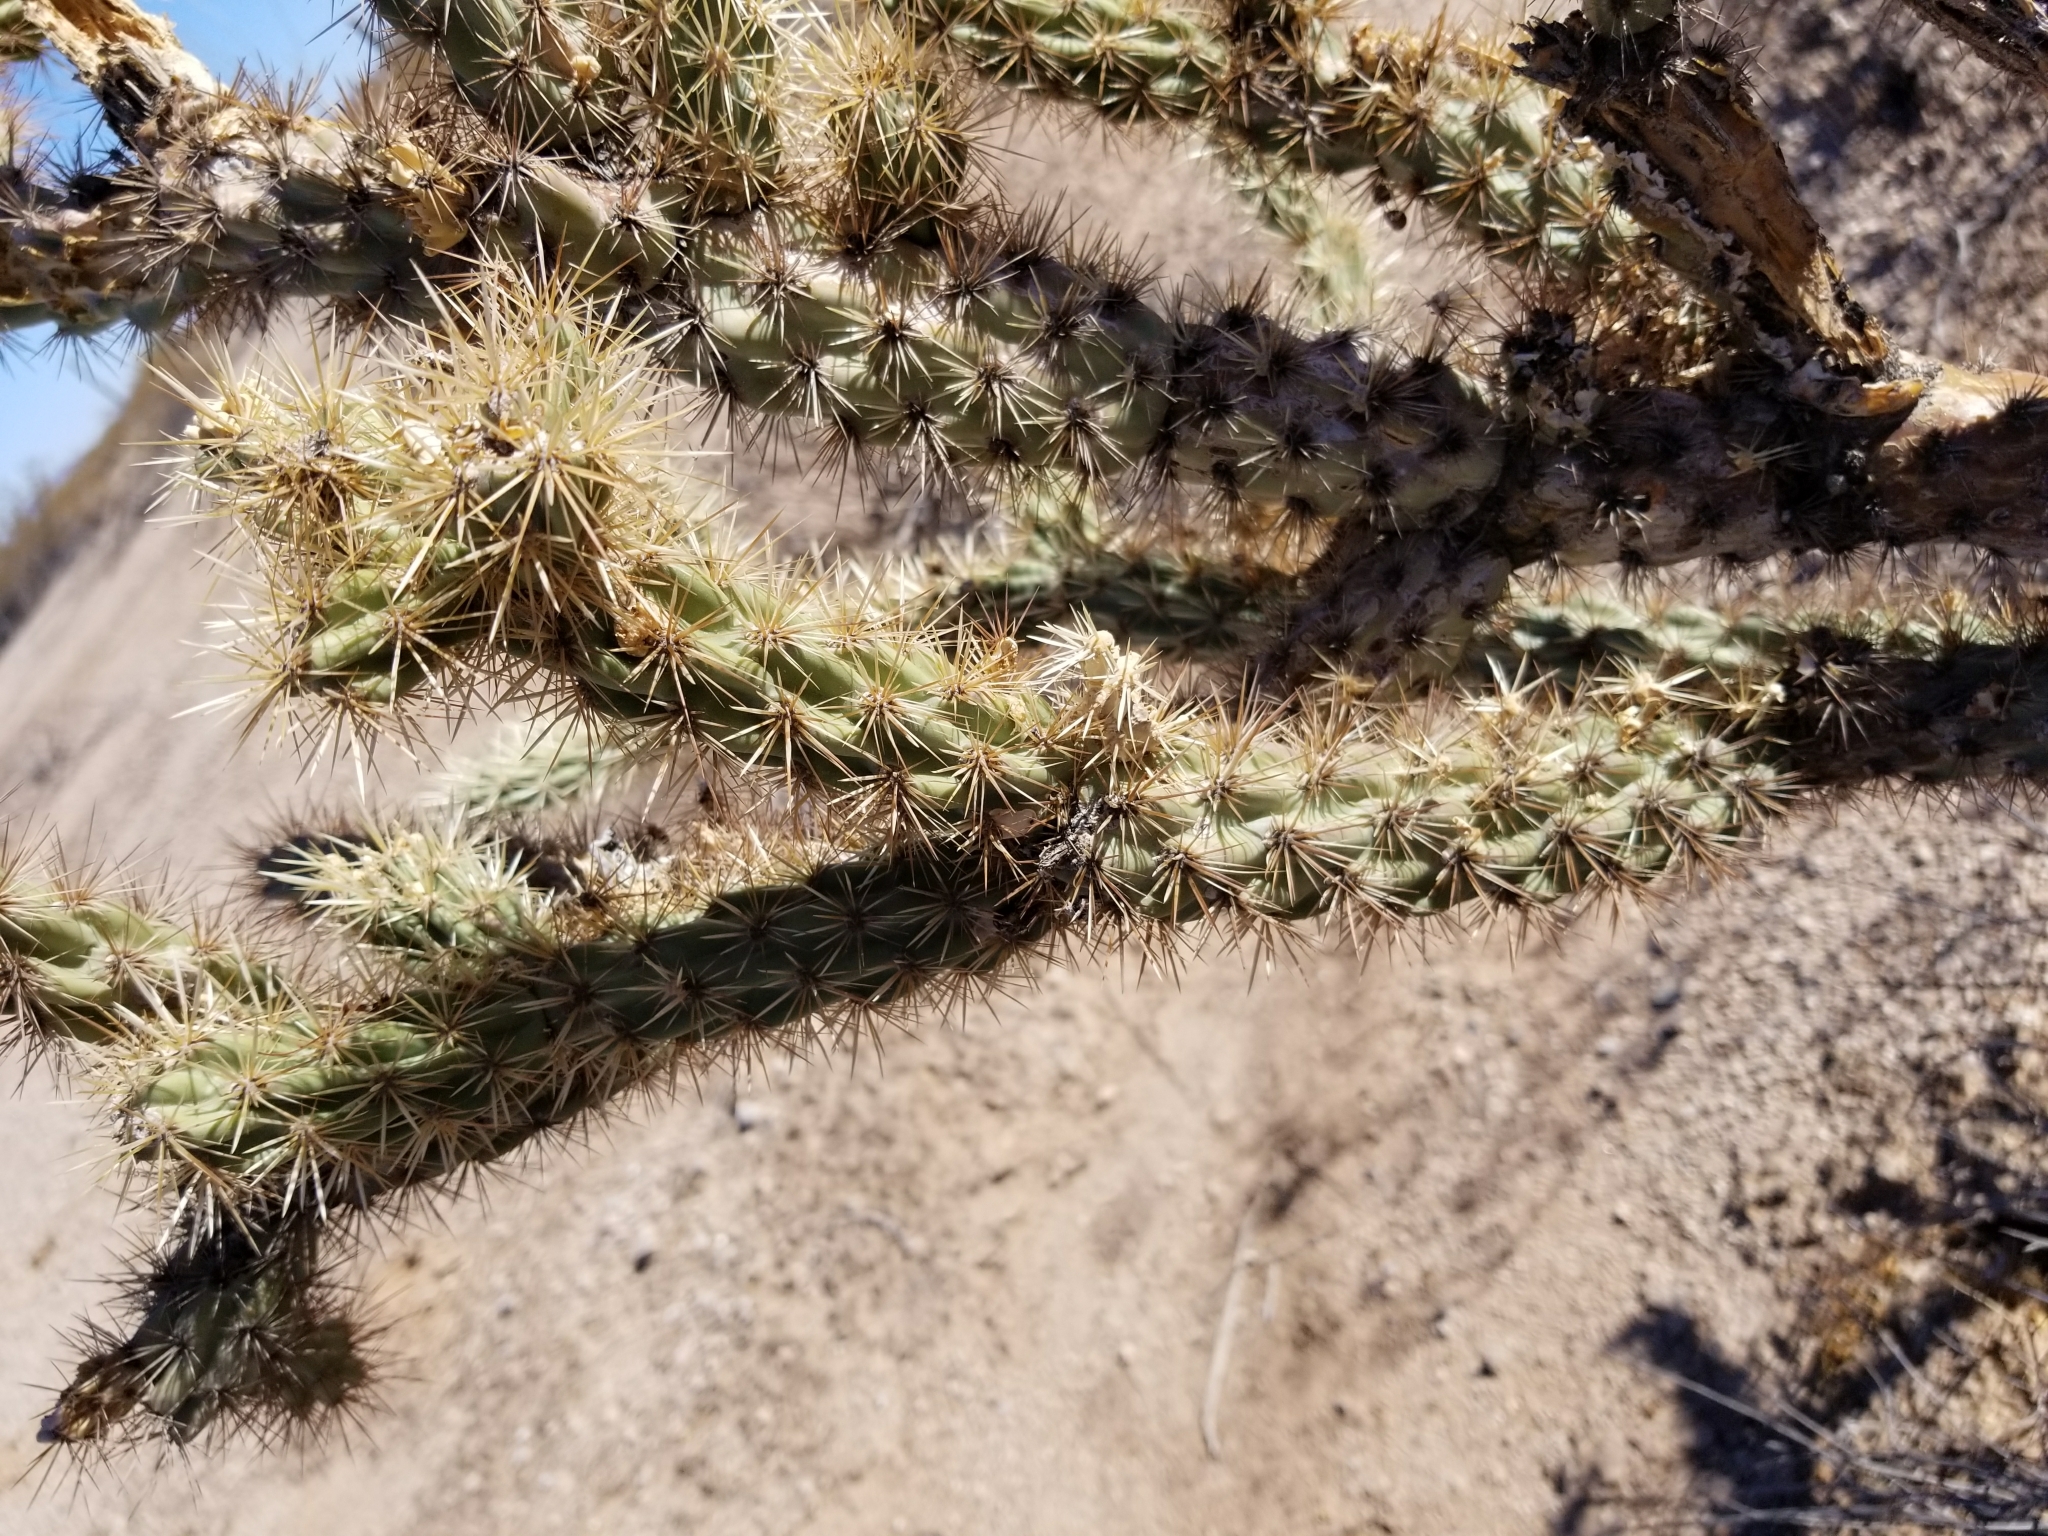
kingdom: Plantae
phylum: Tracheophyta
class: Magnoliopsida
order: Caryophyllales
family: Cactaceae
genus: Cylindropuntia
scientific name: Cylindropuntia acanthocarpa
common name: Buckhorn cholla
